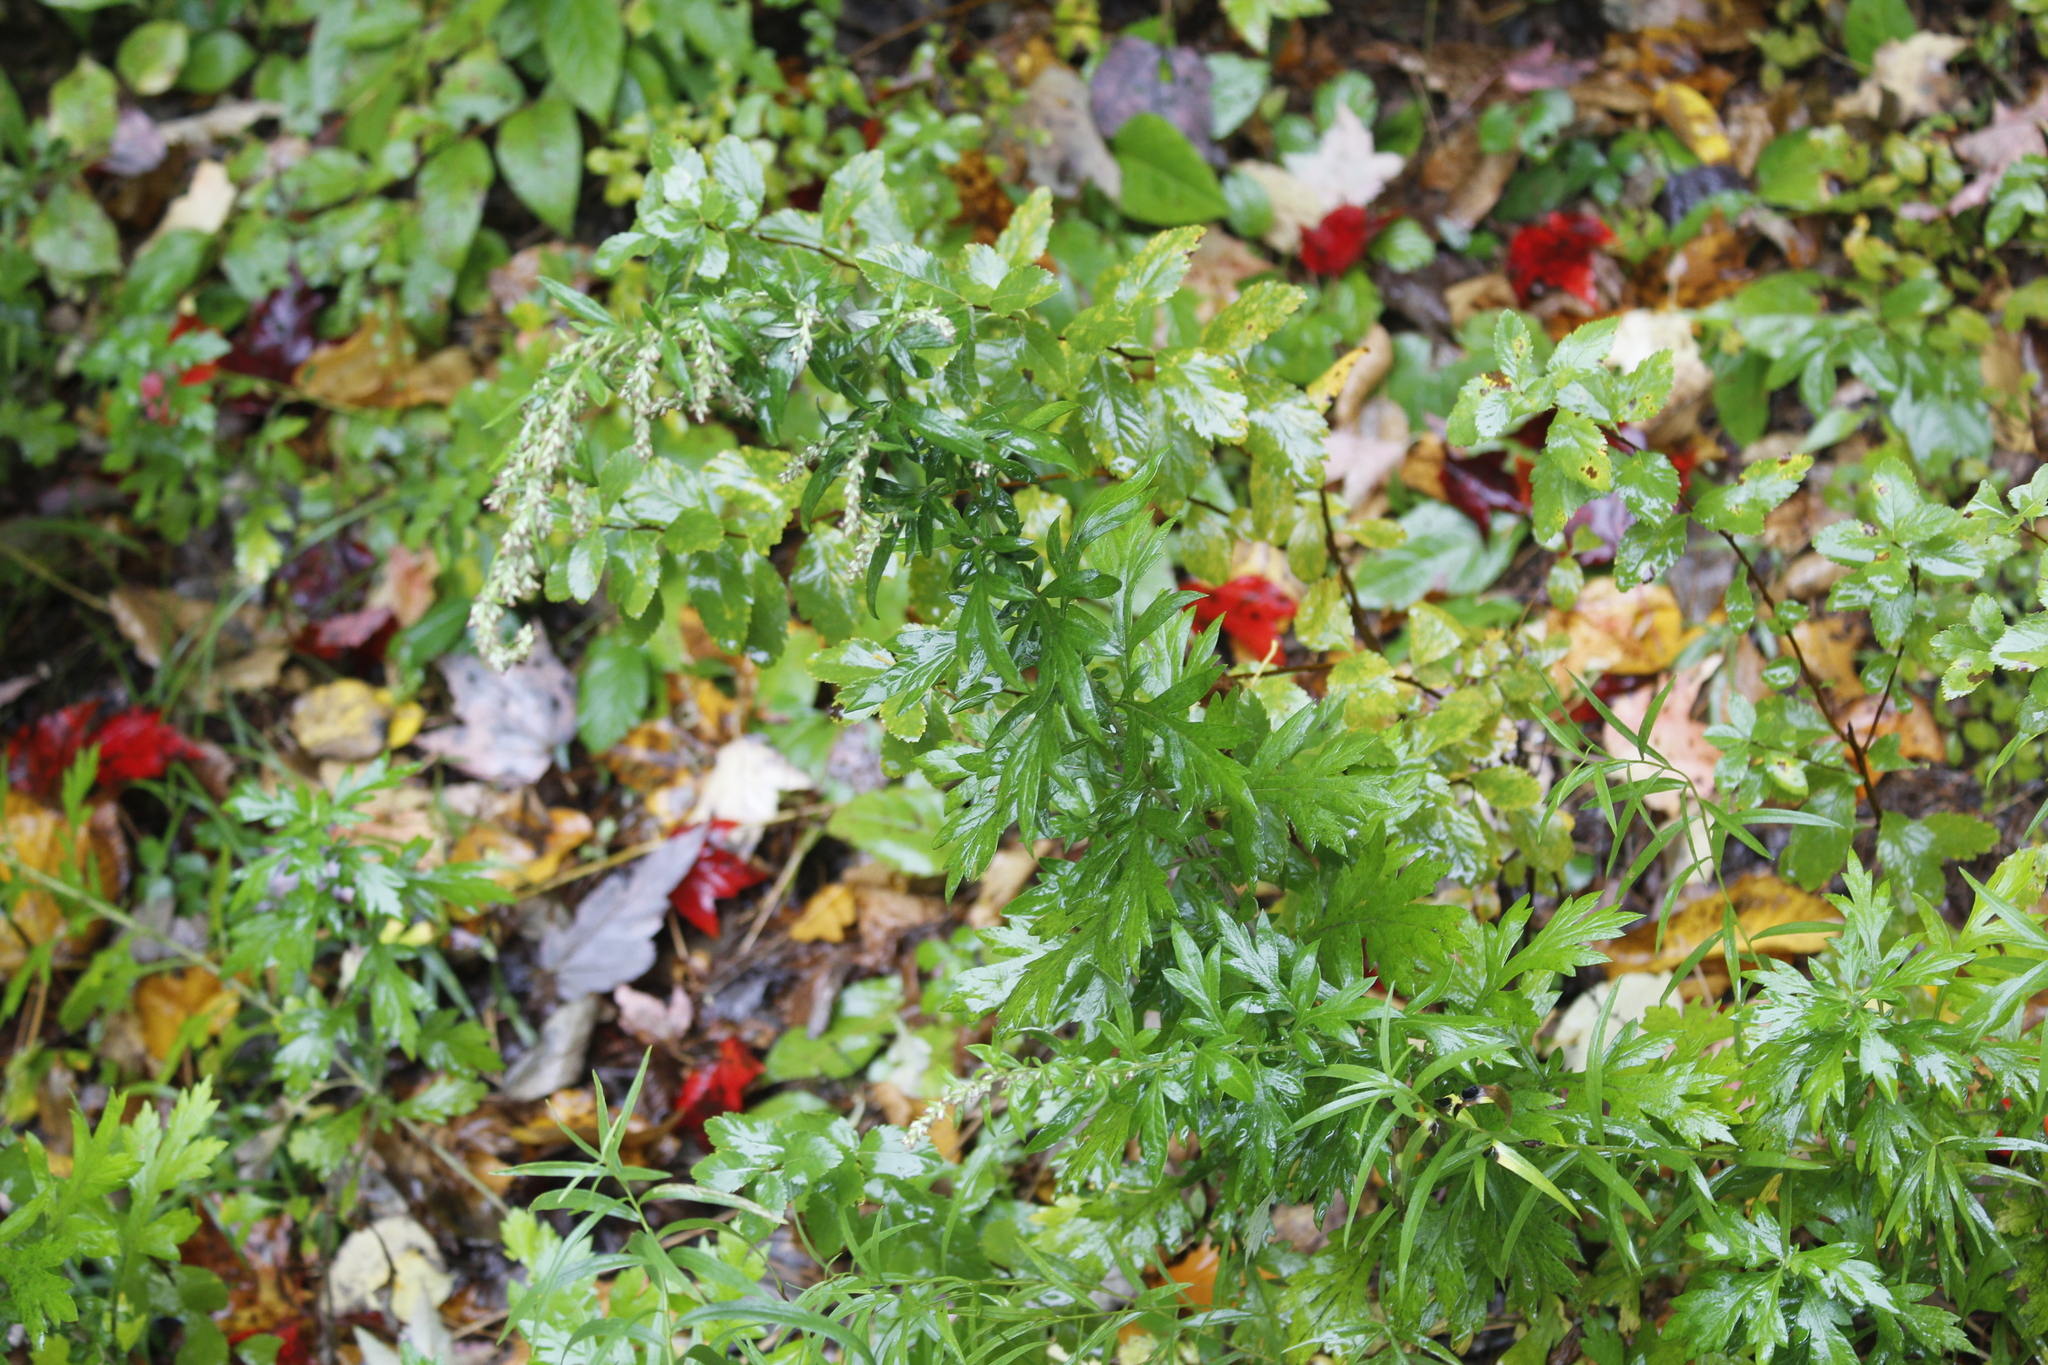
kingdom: Plantae
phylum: Tracheophyta
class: Magnoliopsida
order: Asterales
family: Asteraceae
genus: Artemisia
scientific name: Artemisia vulgaris
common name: Mugwort
